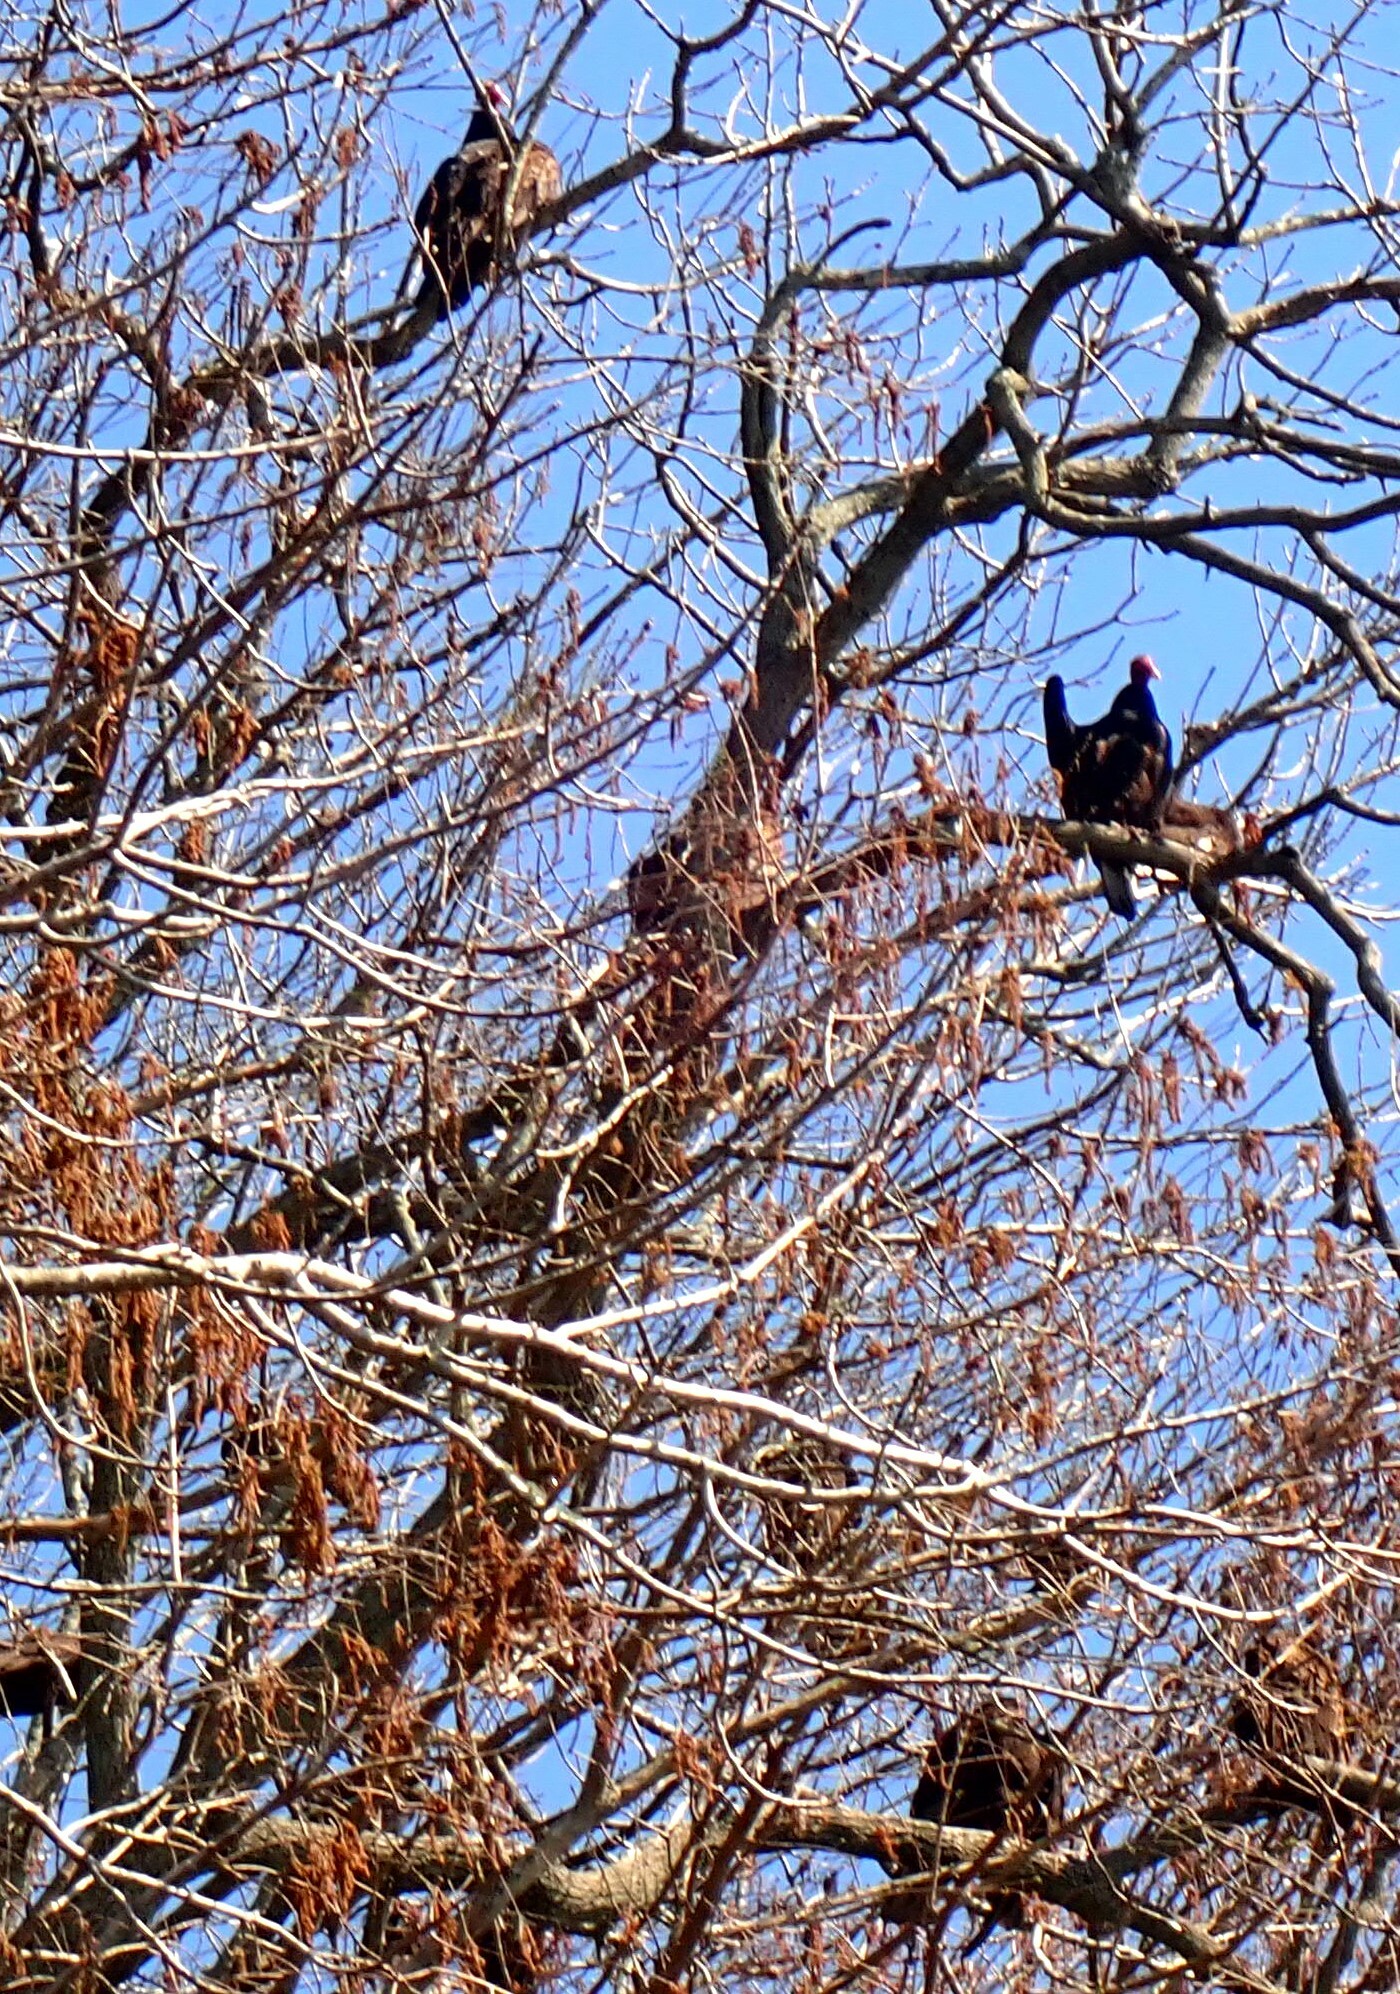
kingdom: Animalia
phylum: Chordata
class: Aves
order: Accipitriformes
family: Cathartidae
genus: Cathartes
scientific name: Cathartes aura
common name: Turkey vulture
